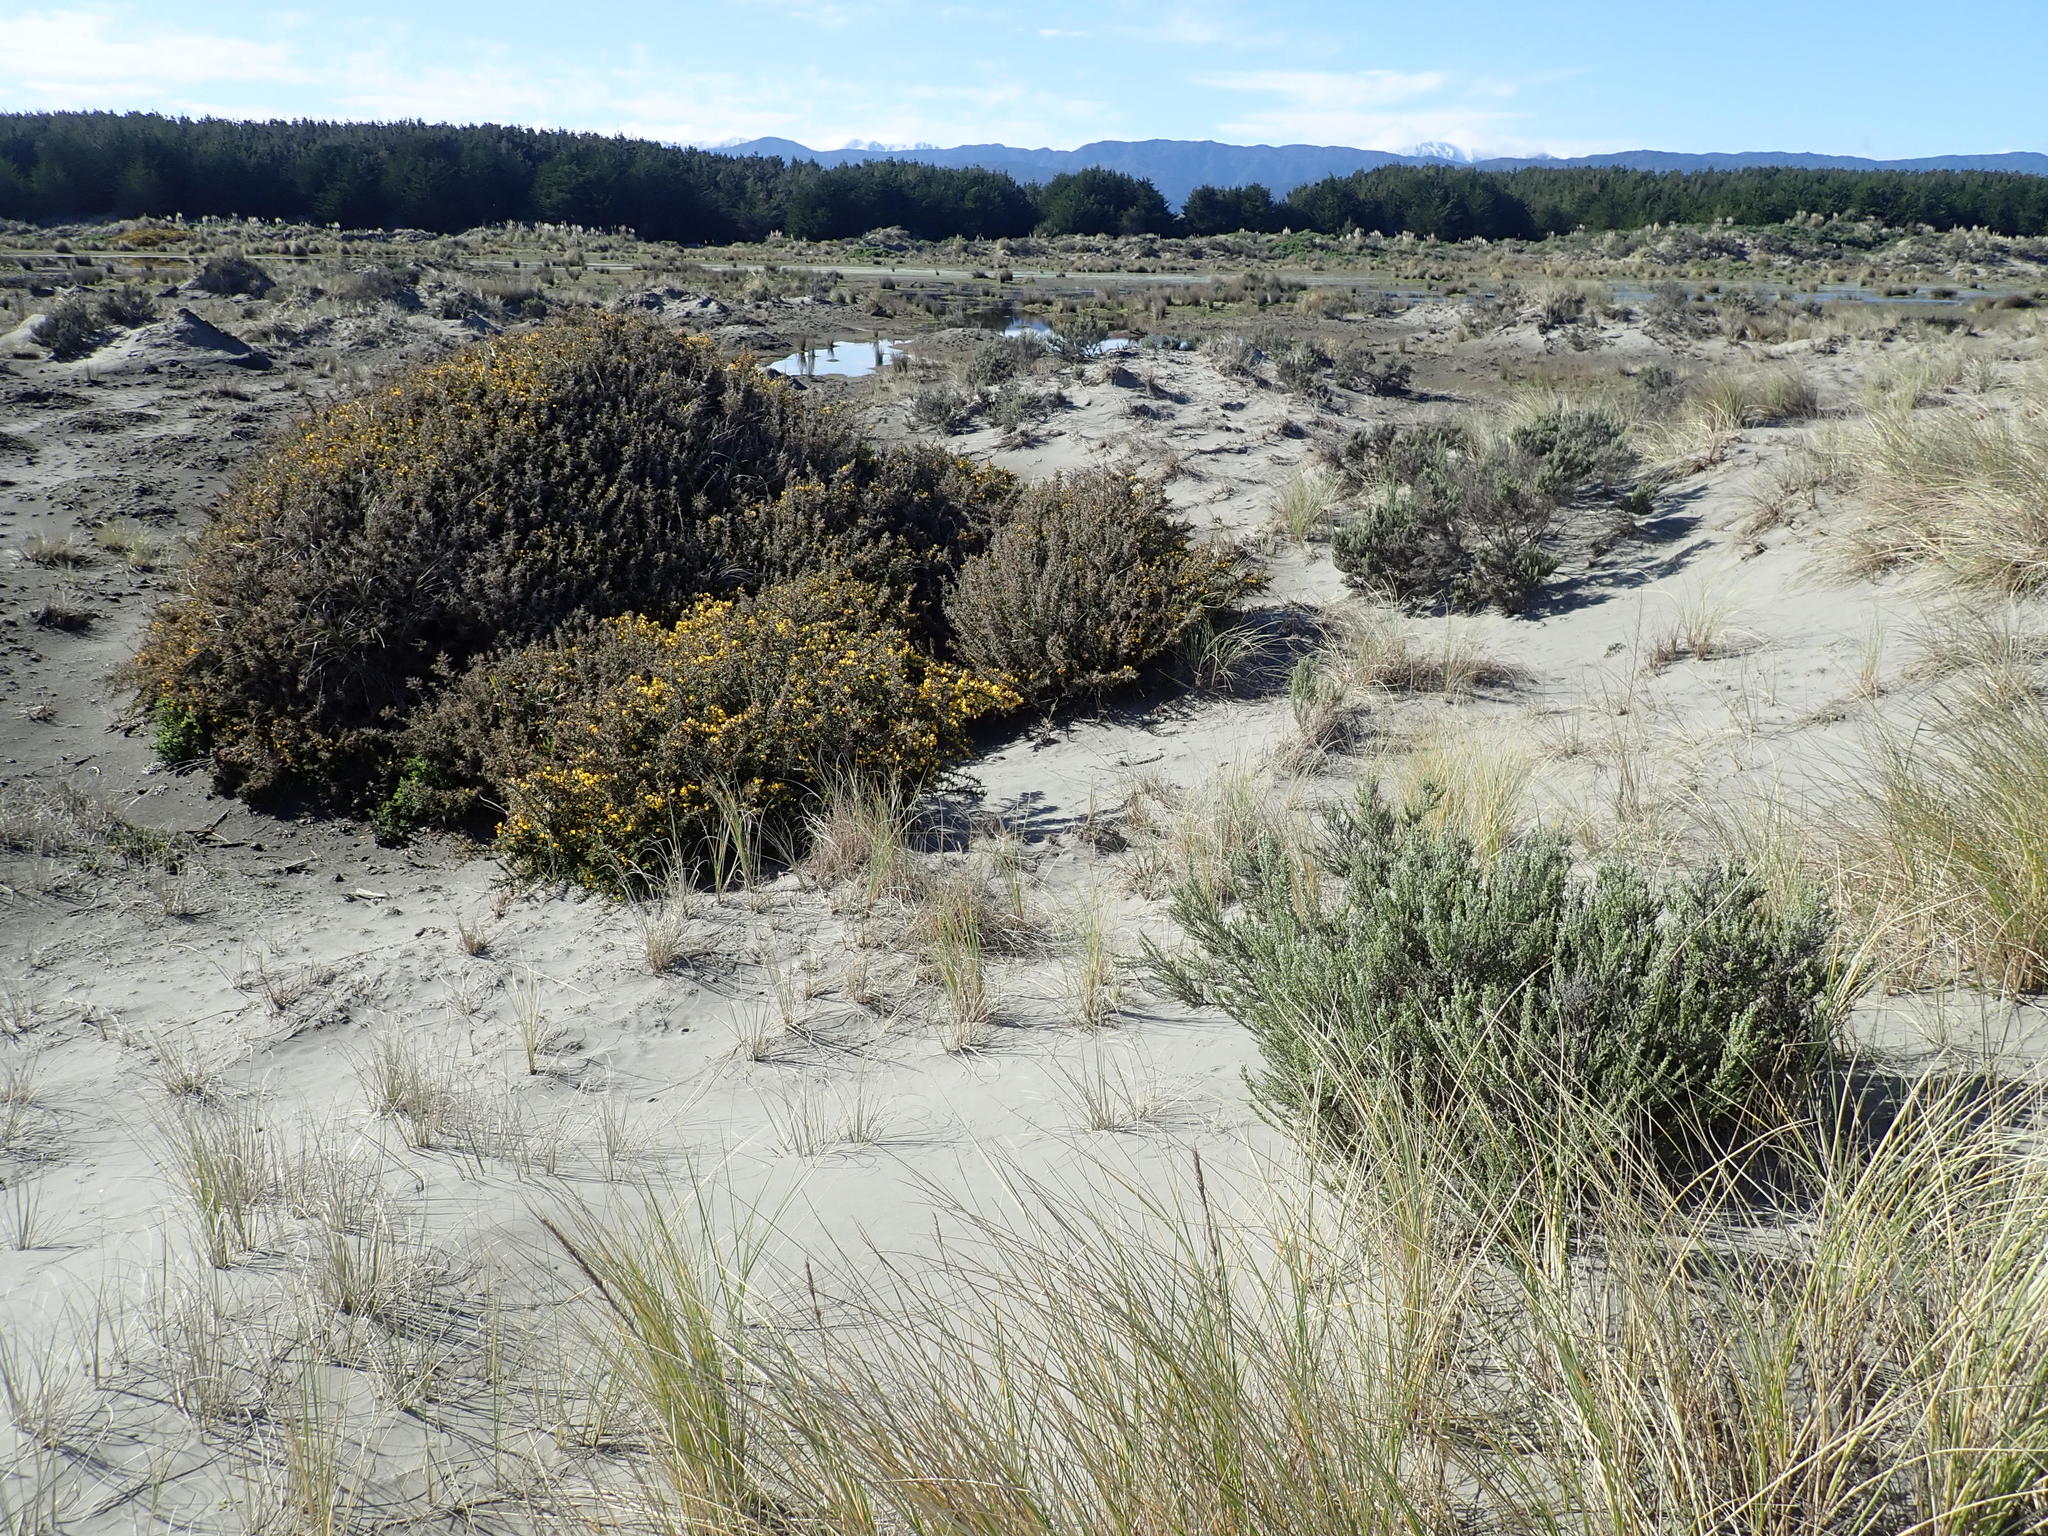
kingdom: Plantae
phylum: Tracheophyta
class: Magnoliopsida
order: Fabales
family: Fabaceae
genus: Ulex
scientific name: Ulex europaeus
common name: Common gorse
